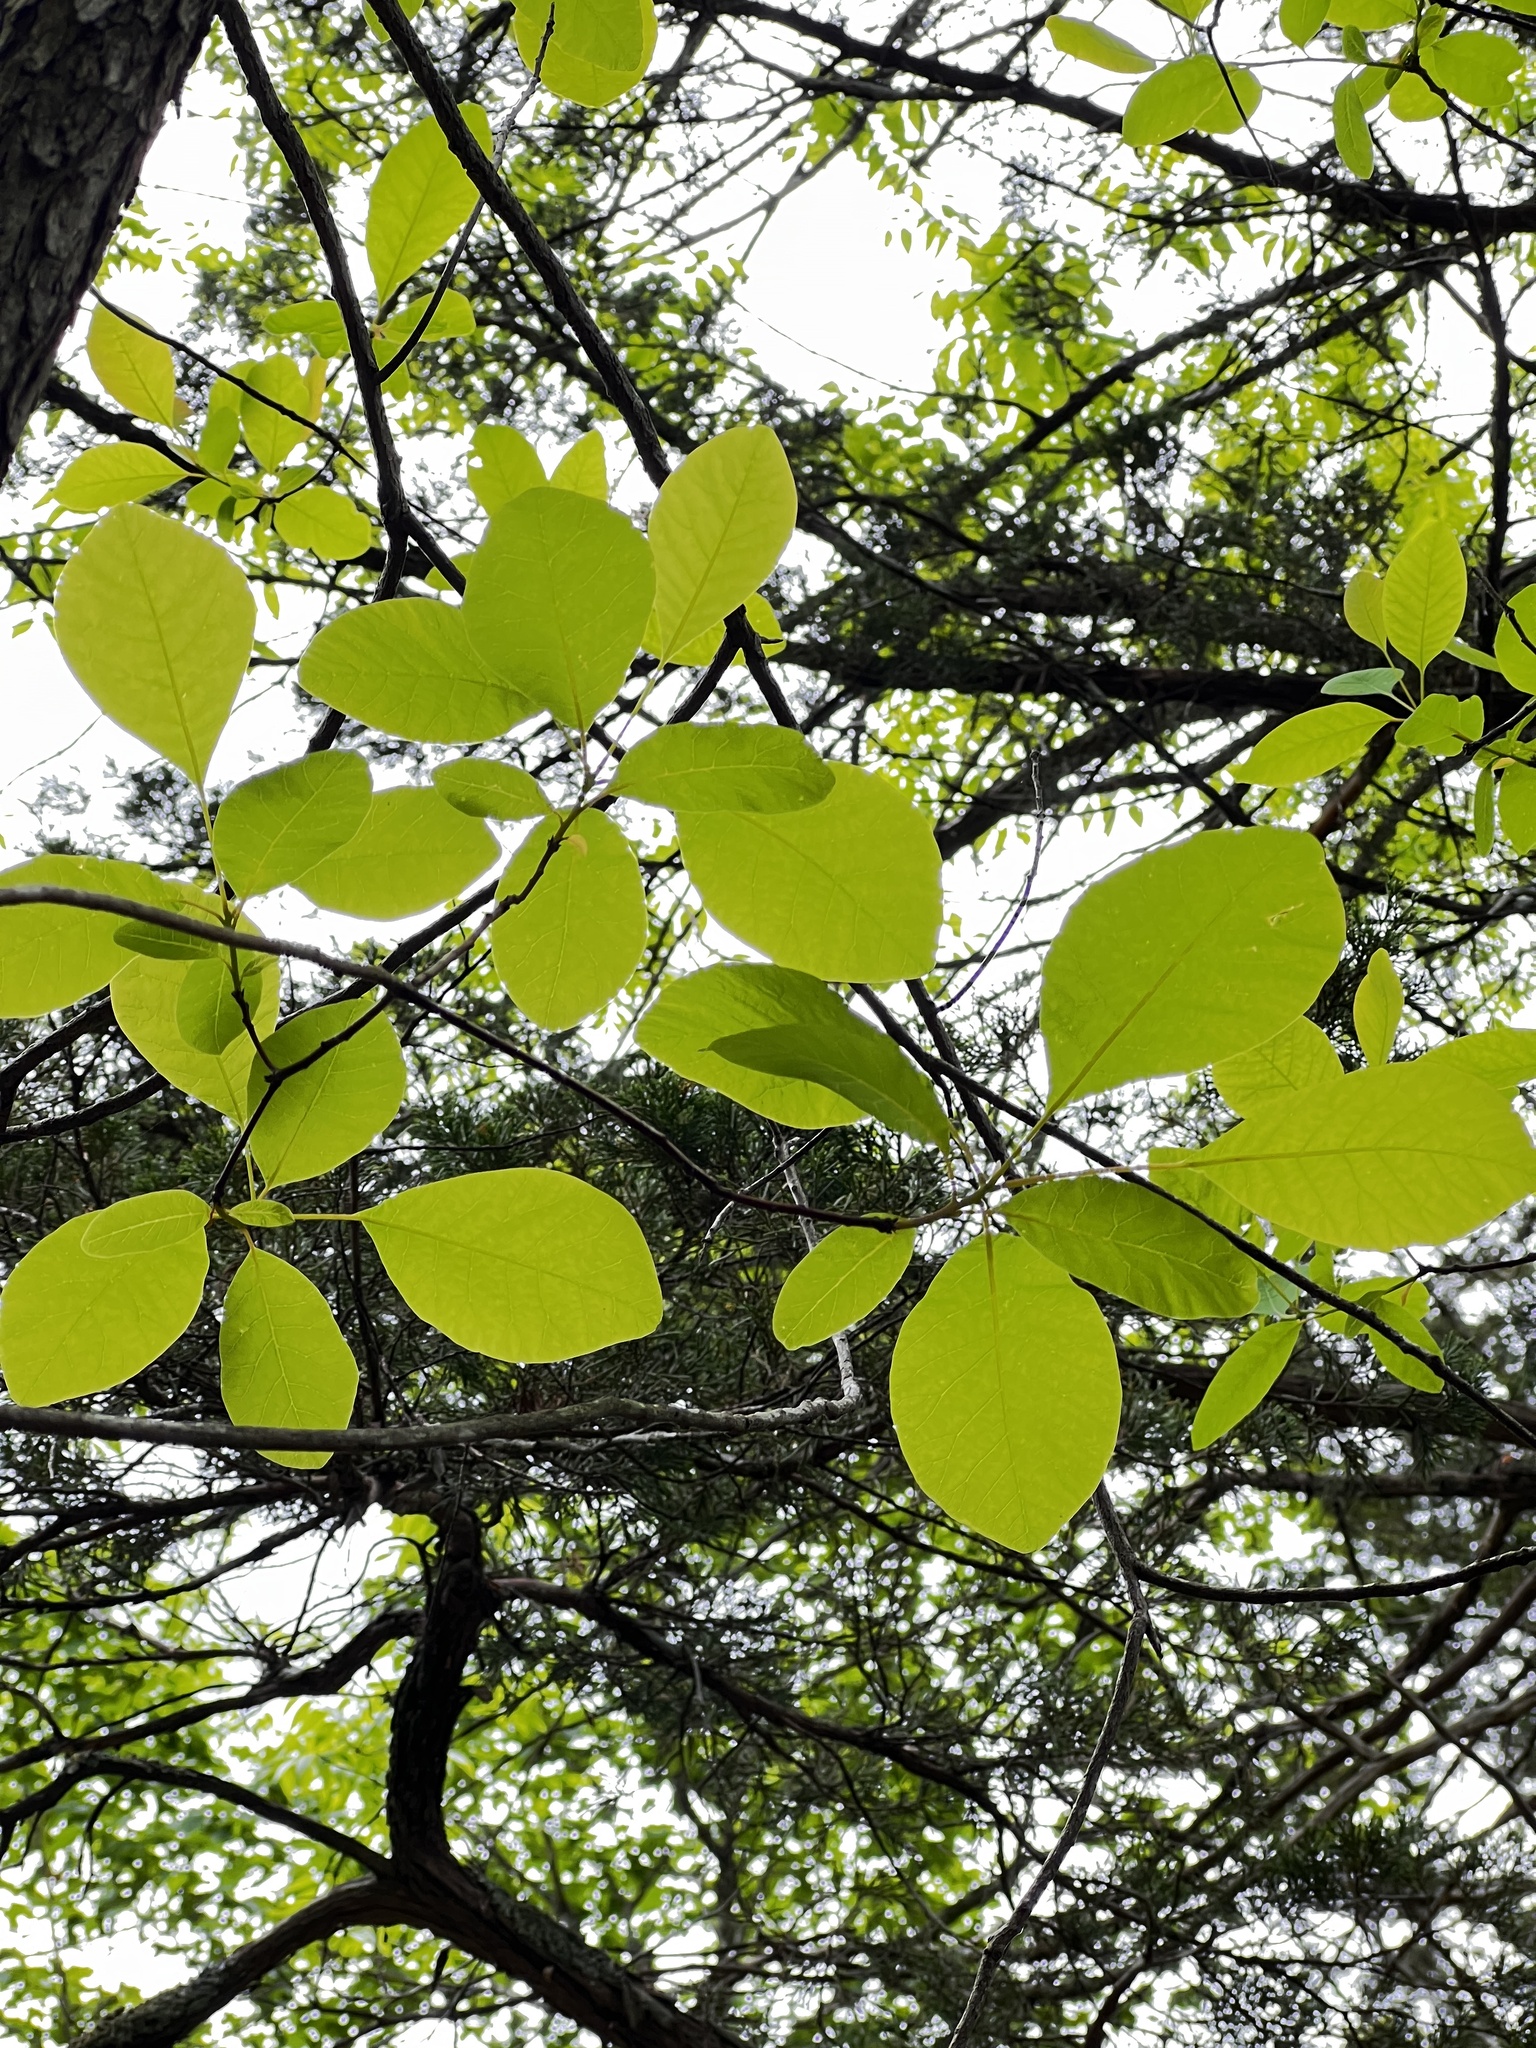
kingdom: Plantae
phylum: Tracheophyta
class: Magnoliopsida
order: Sapindales
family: Anacardiaceae
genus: Cotinus
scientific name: Cotinus obovatus
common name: Chittamwood
